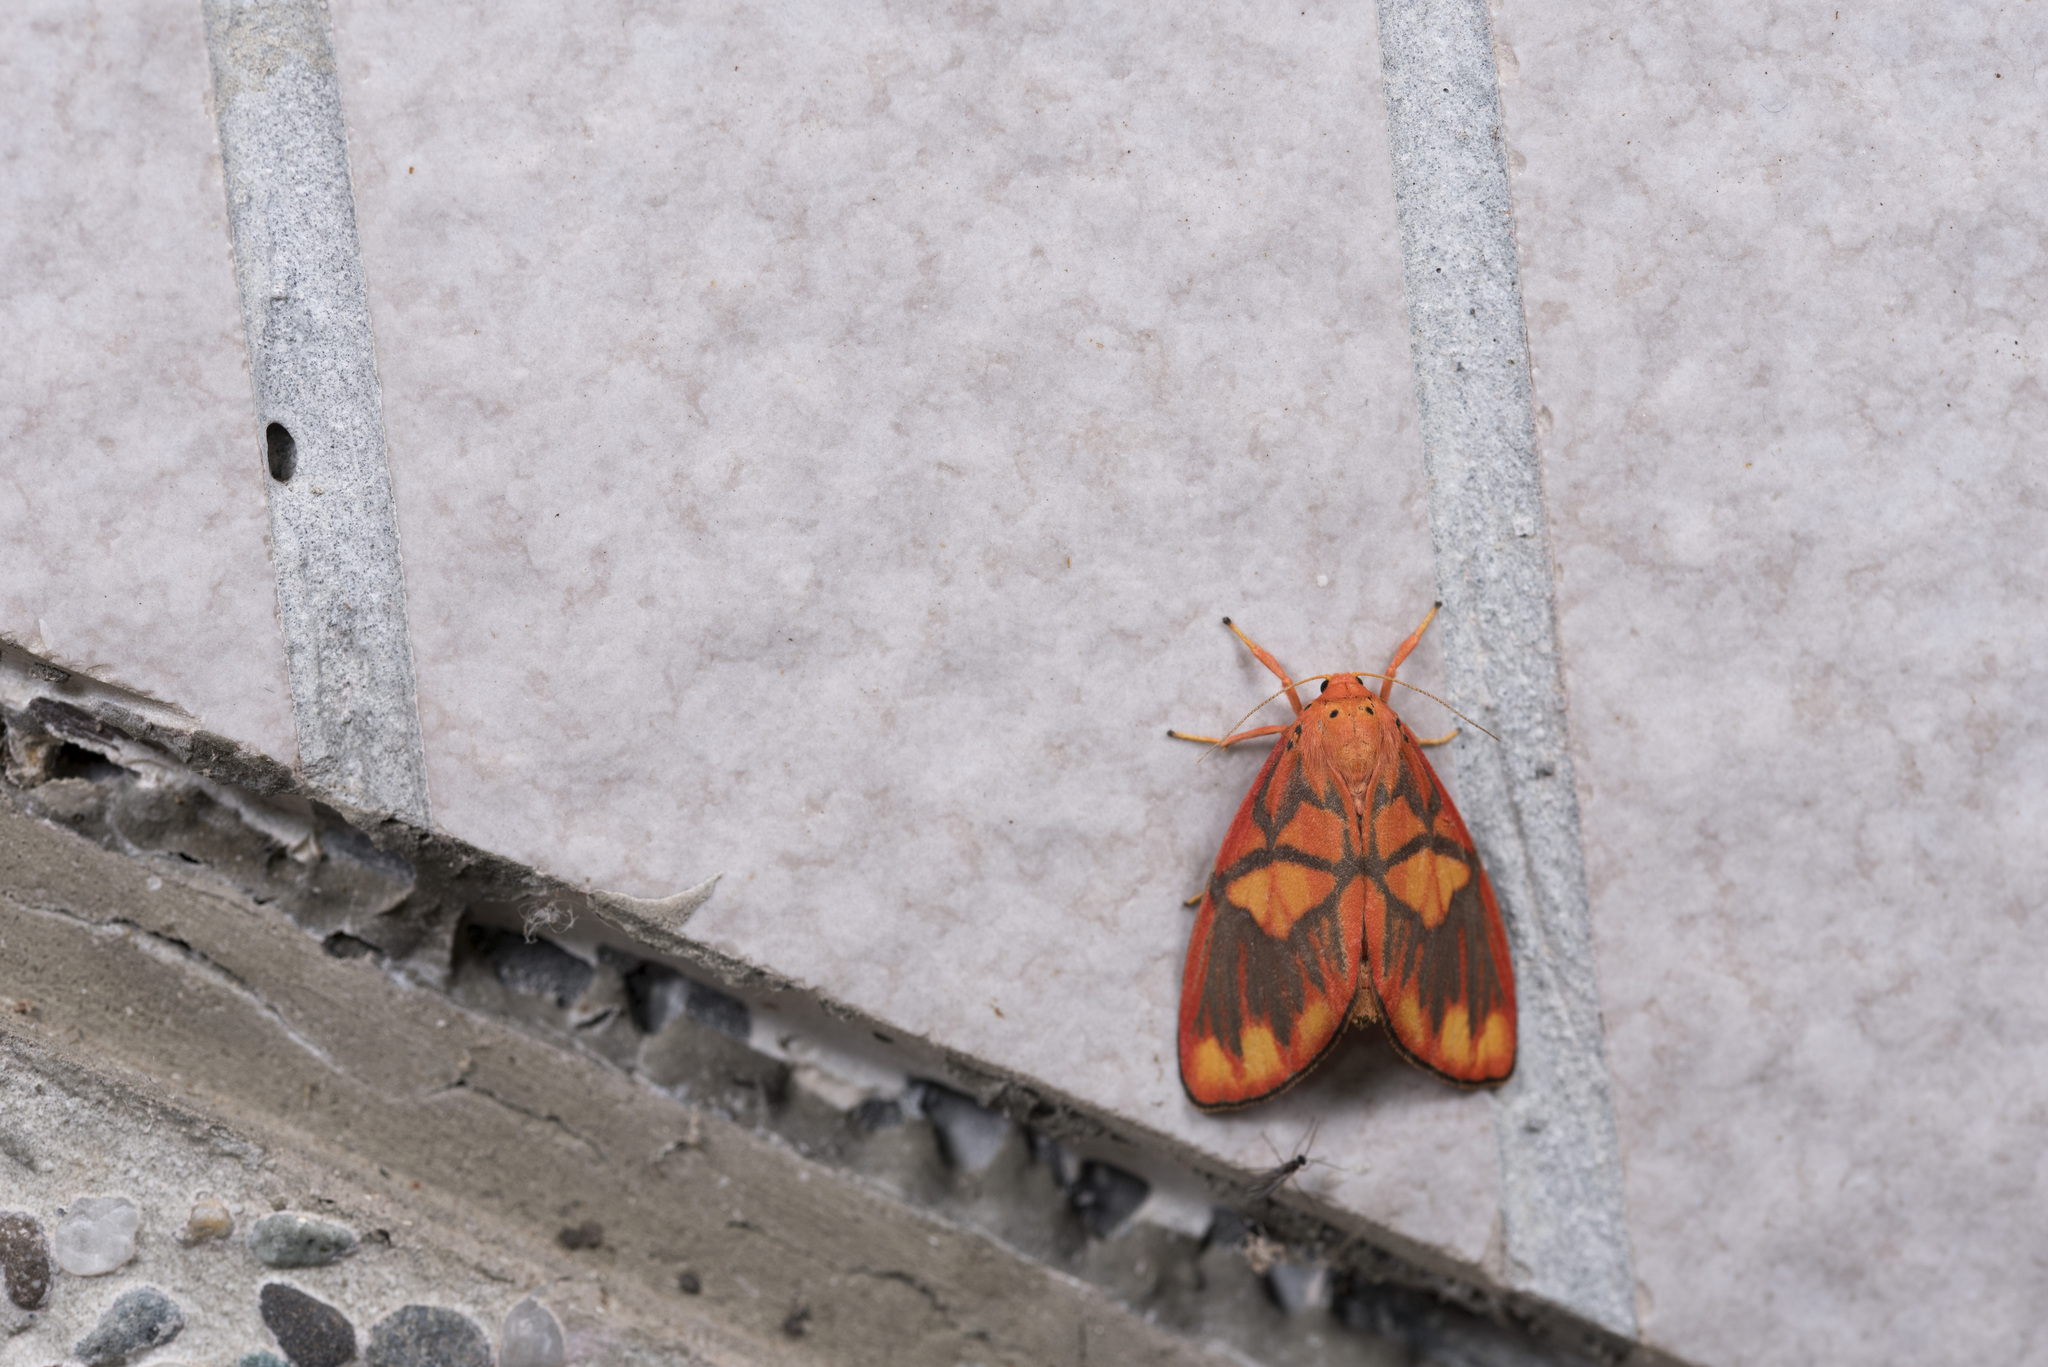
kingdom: Animalia
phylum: Arthropoda
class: Insecta
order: Lepidoptera
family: Erebidae
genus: Matsumursine
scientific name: Matsumursine horishanella
